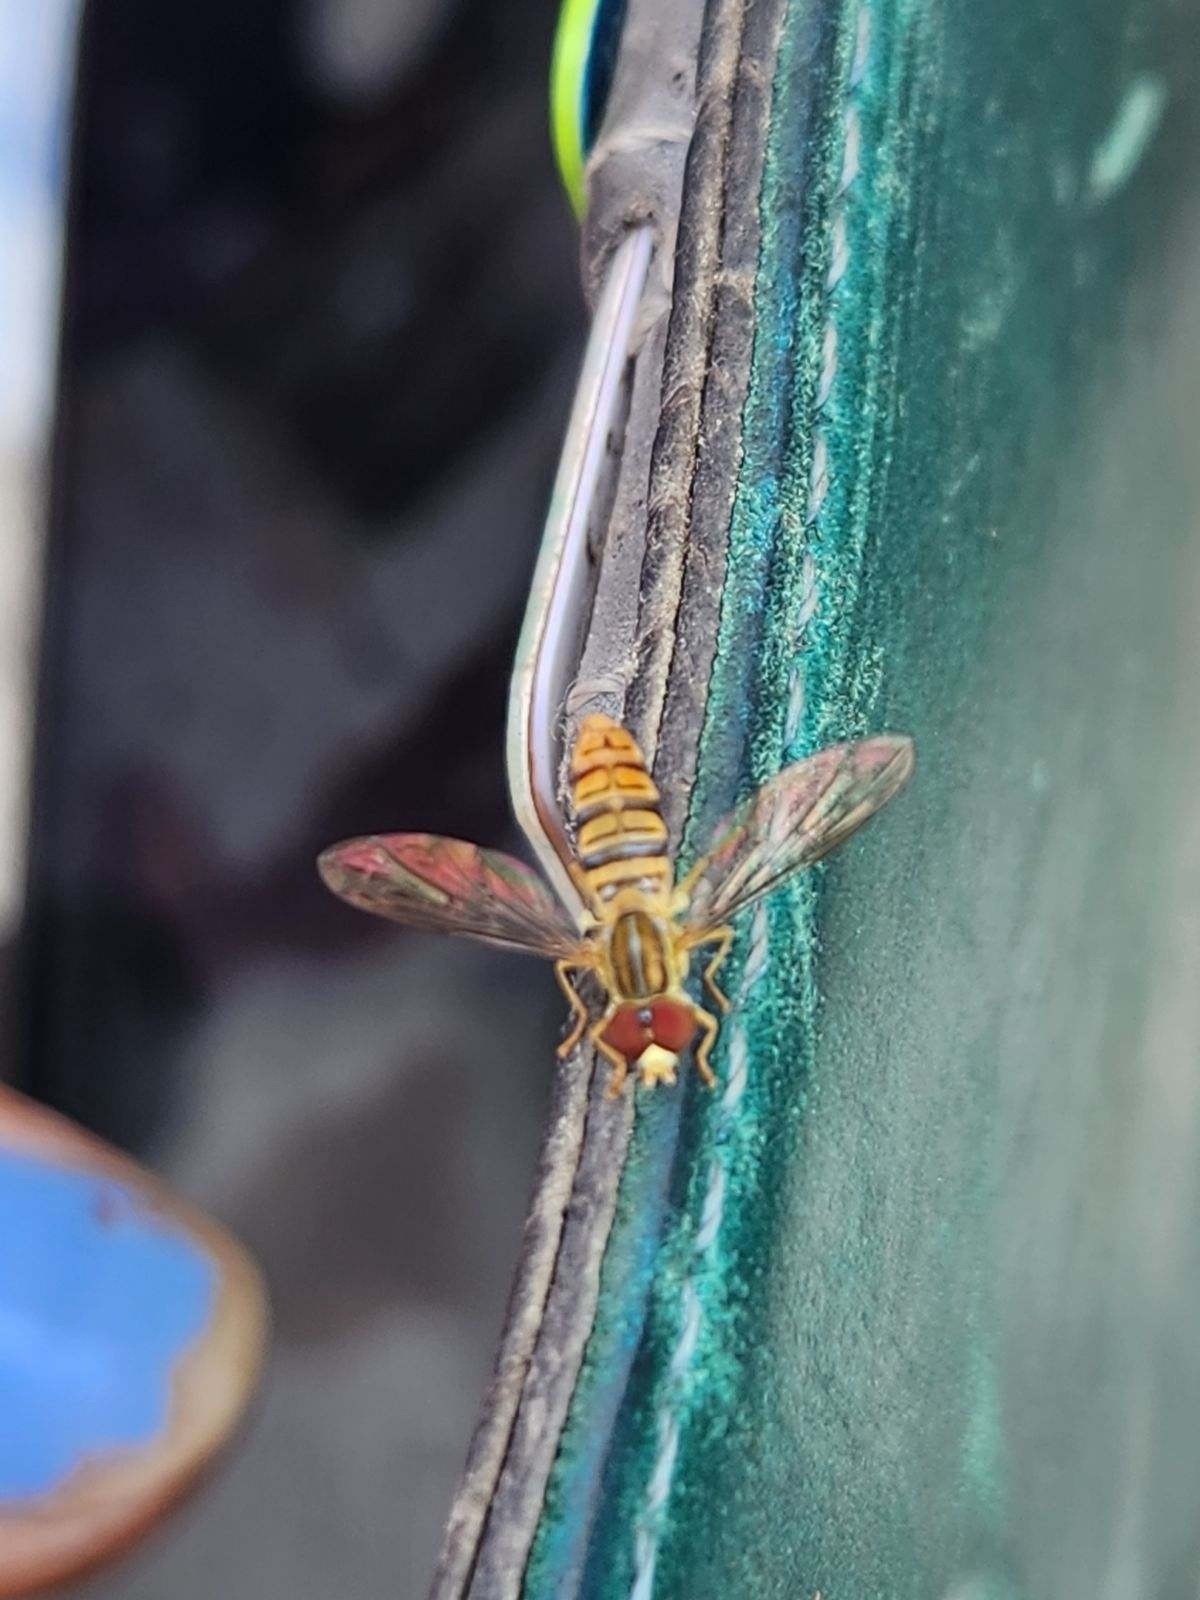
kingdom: Animalia
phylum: Arthropoda
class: Insecta
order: Diptera
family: Syrphidae
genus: Toxomerus
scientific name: Toxomerus politus
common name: Maize calligrapher
